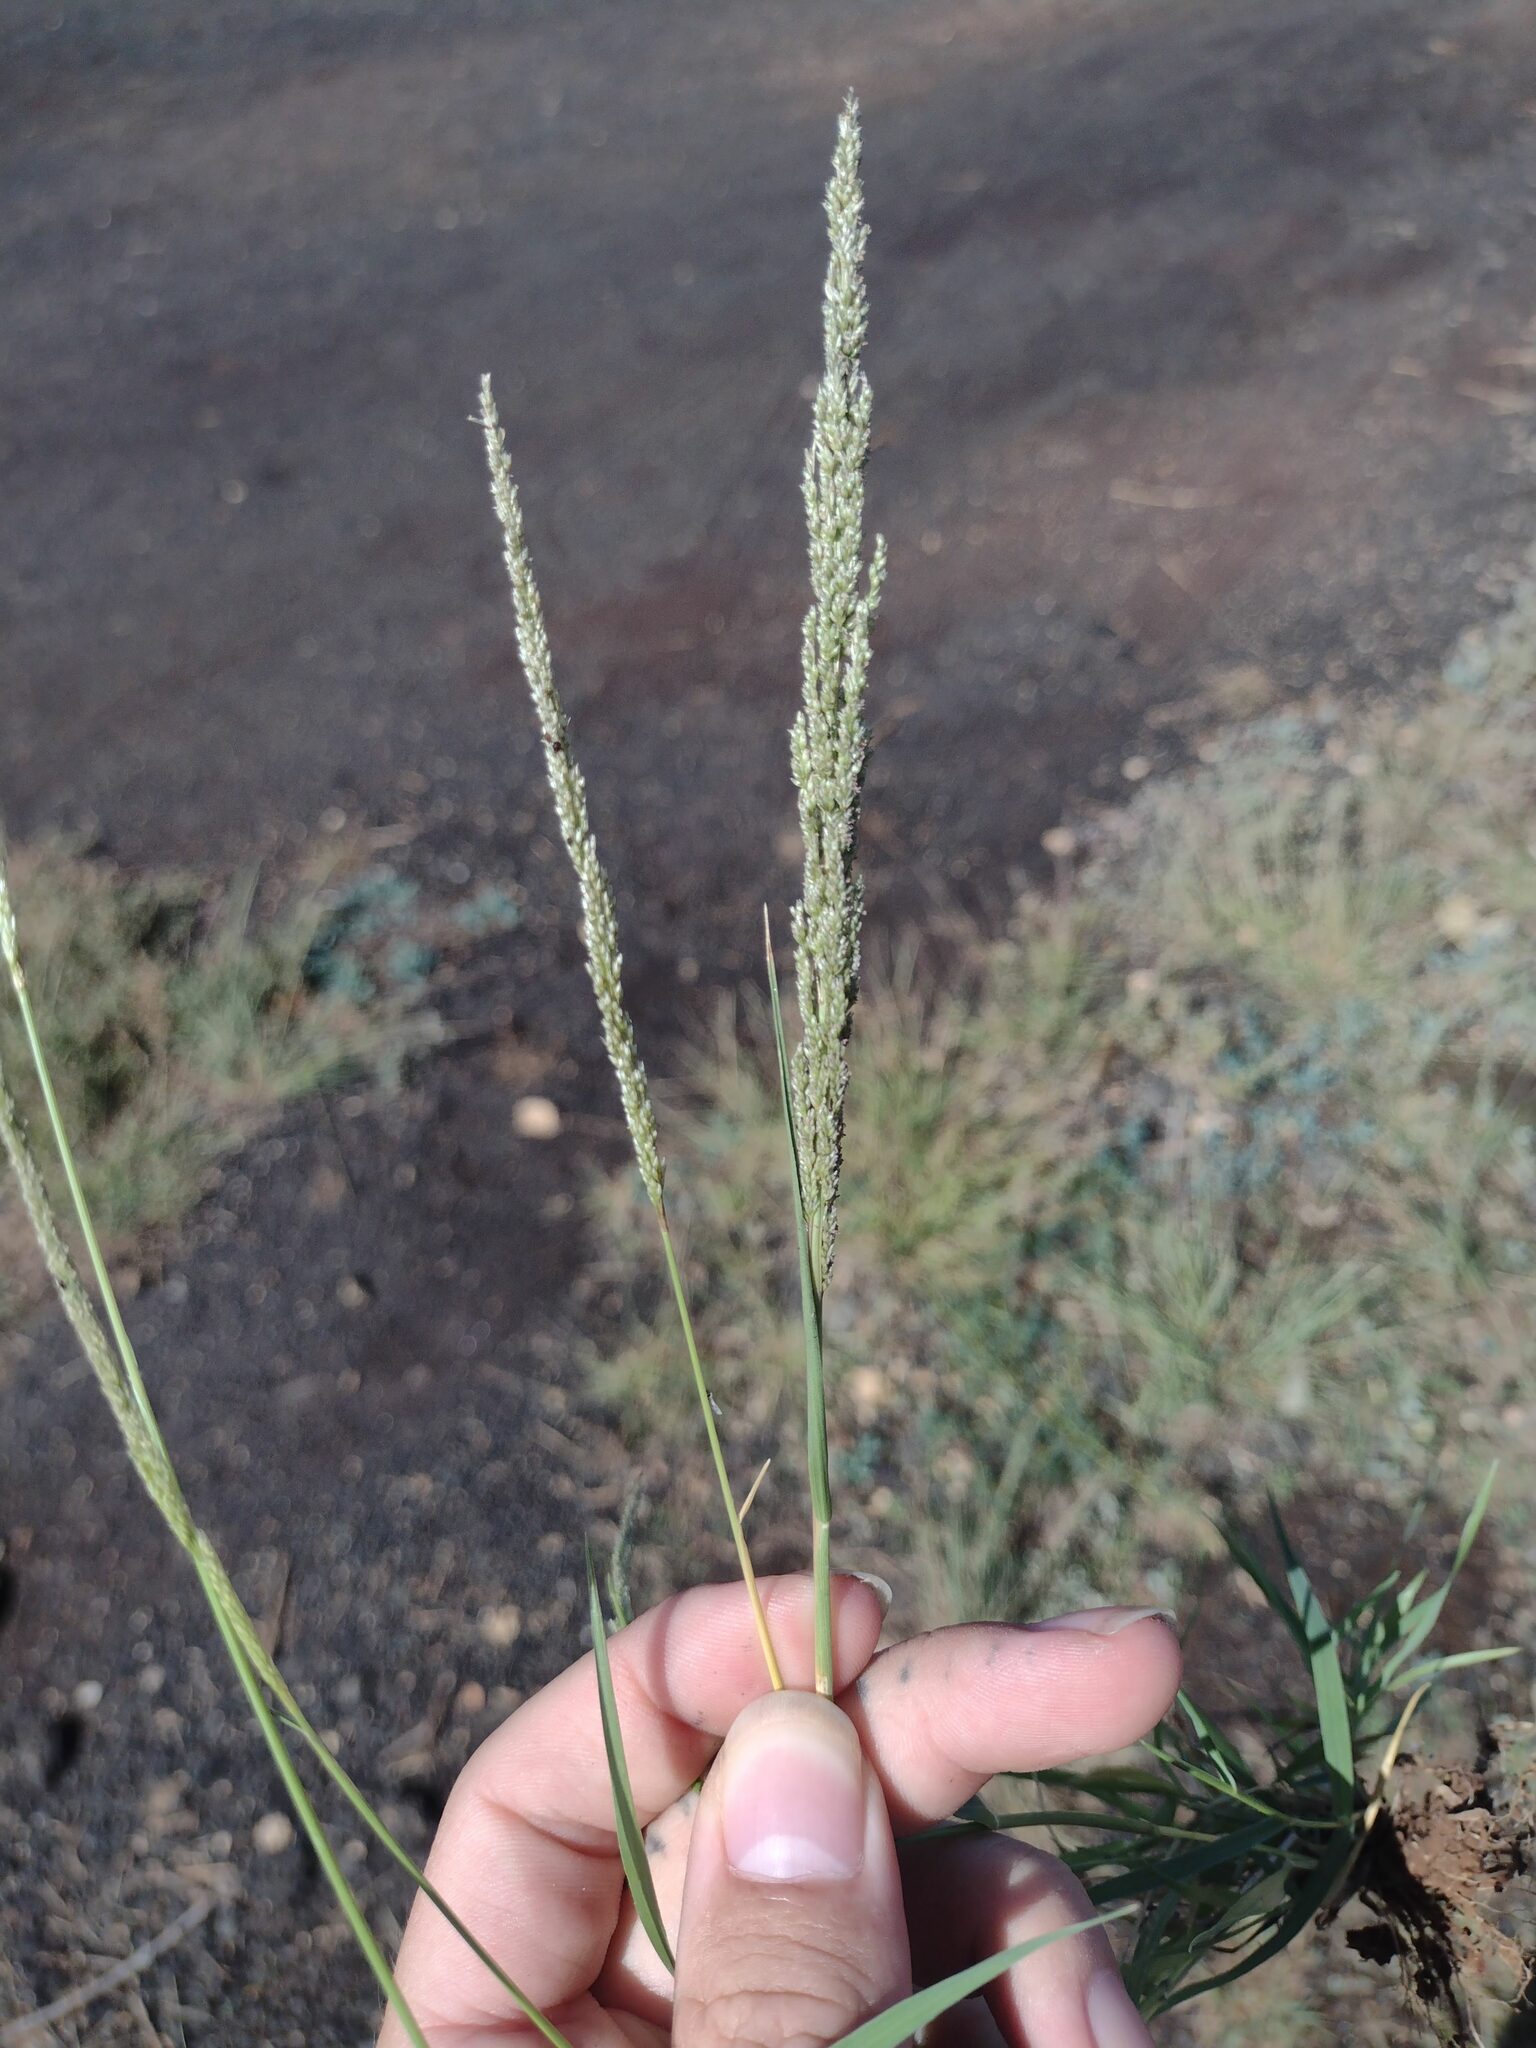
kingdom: Plantae
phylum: Tracheophyta
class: Liliopsida
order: Poales
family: Poaceae
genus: Sporobolus
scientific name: Sporobolus
